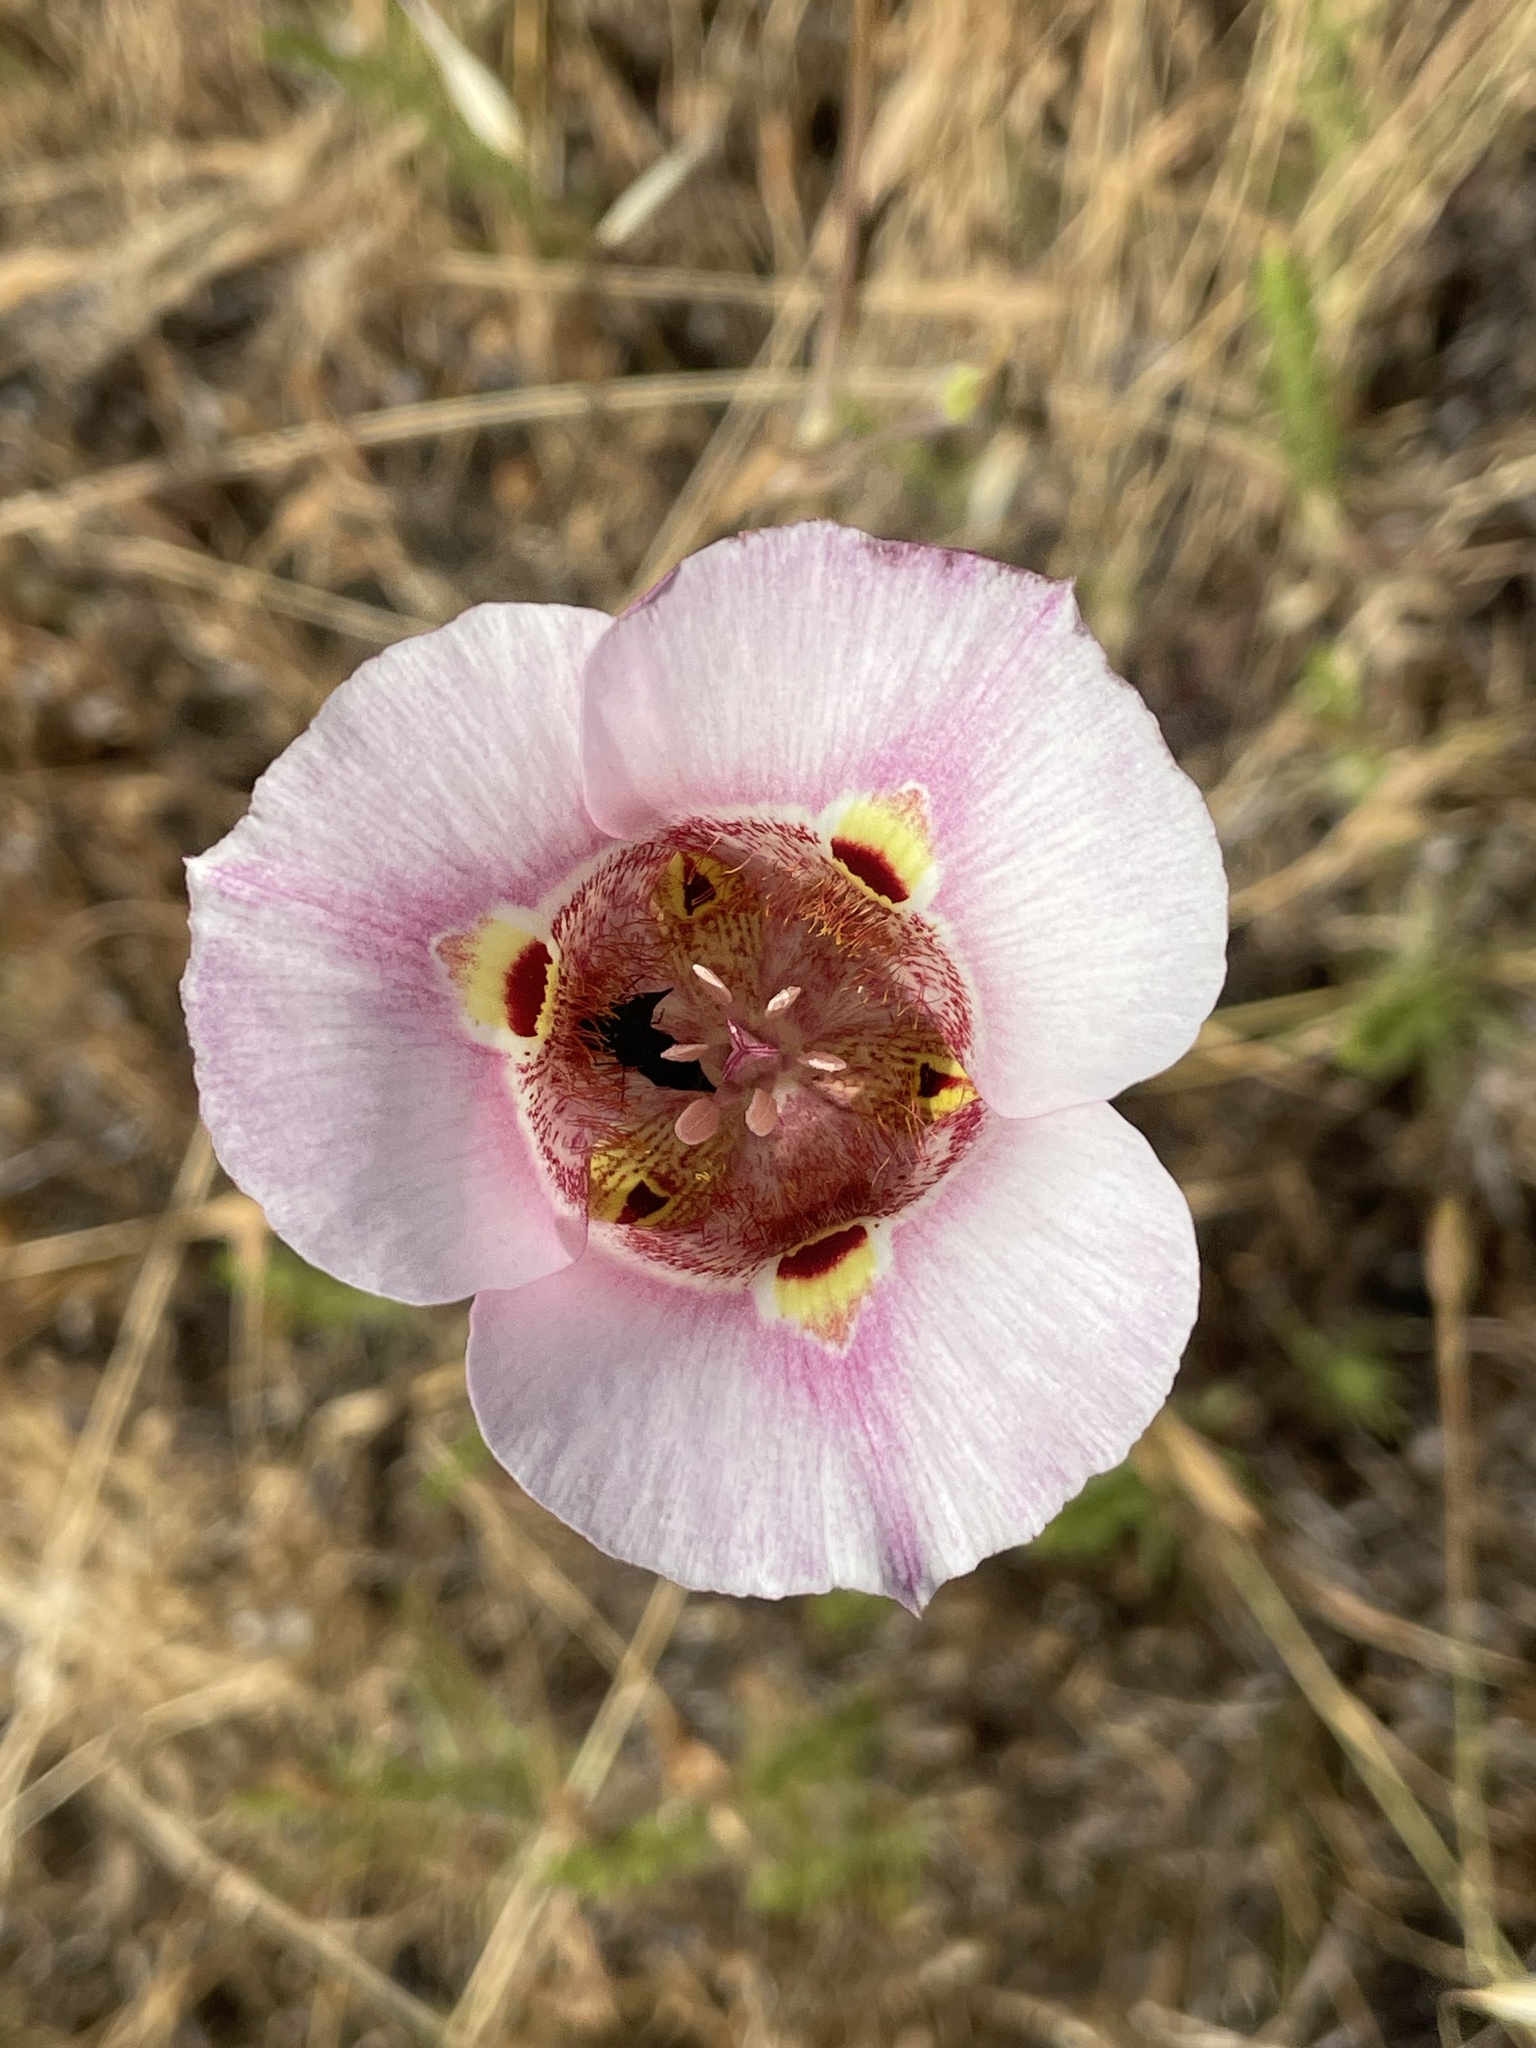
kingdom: Plantae
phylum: Tracheophyta
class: Liliopsida
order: Liliales
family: Liliaceae
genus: Calochortus
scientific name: Calochortus argillosus
